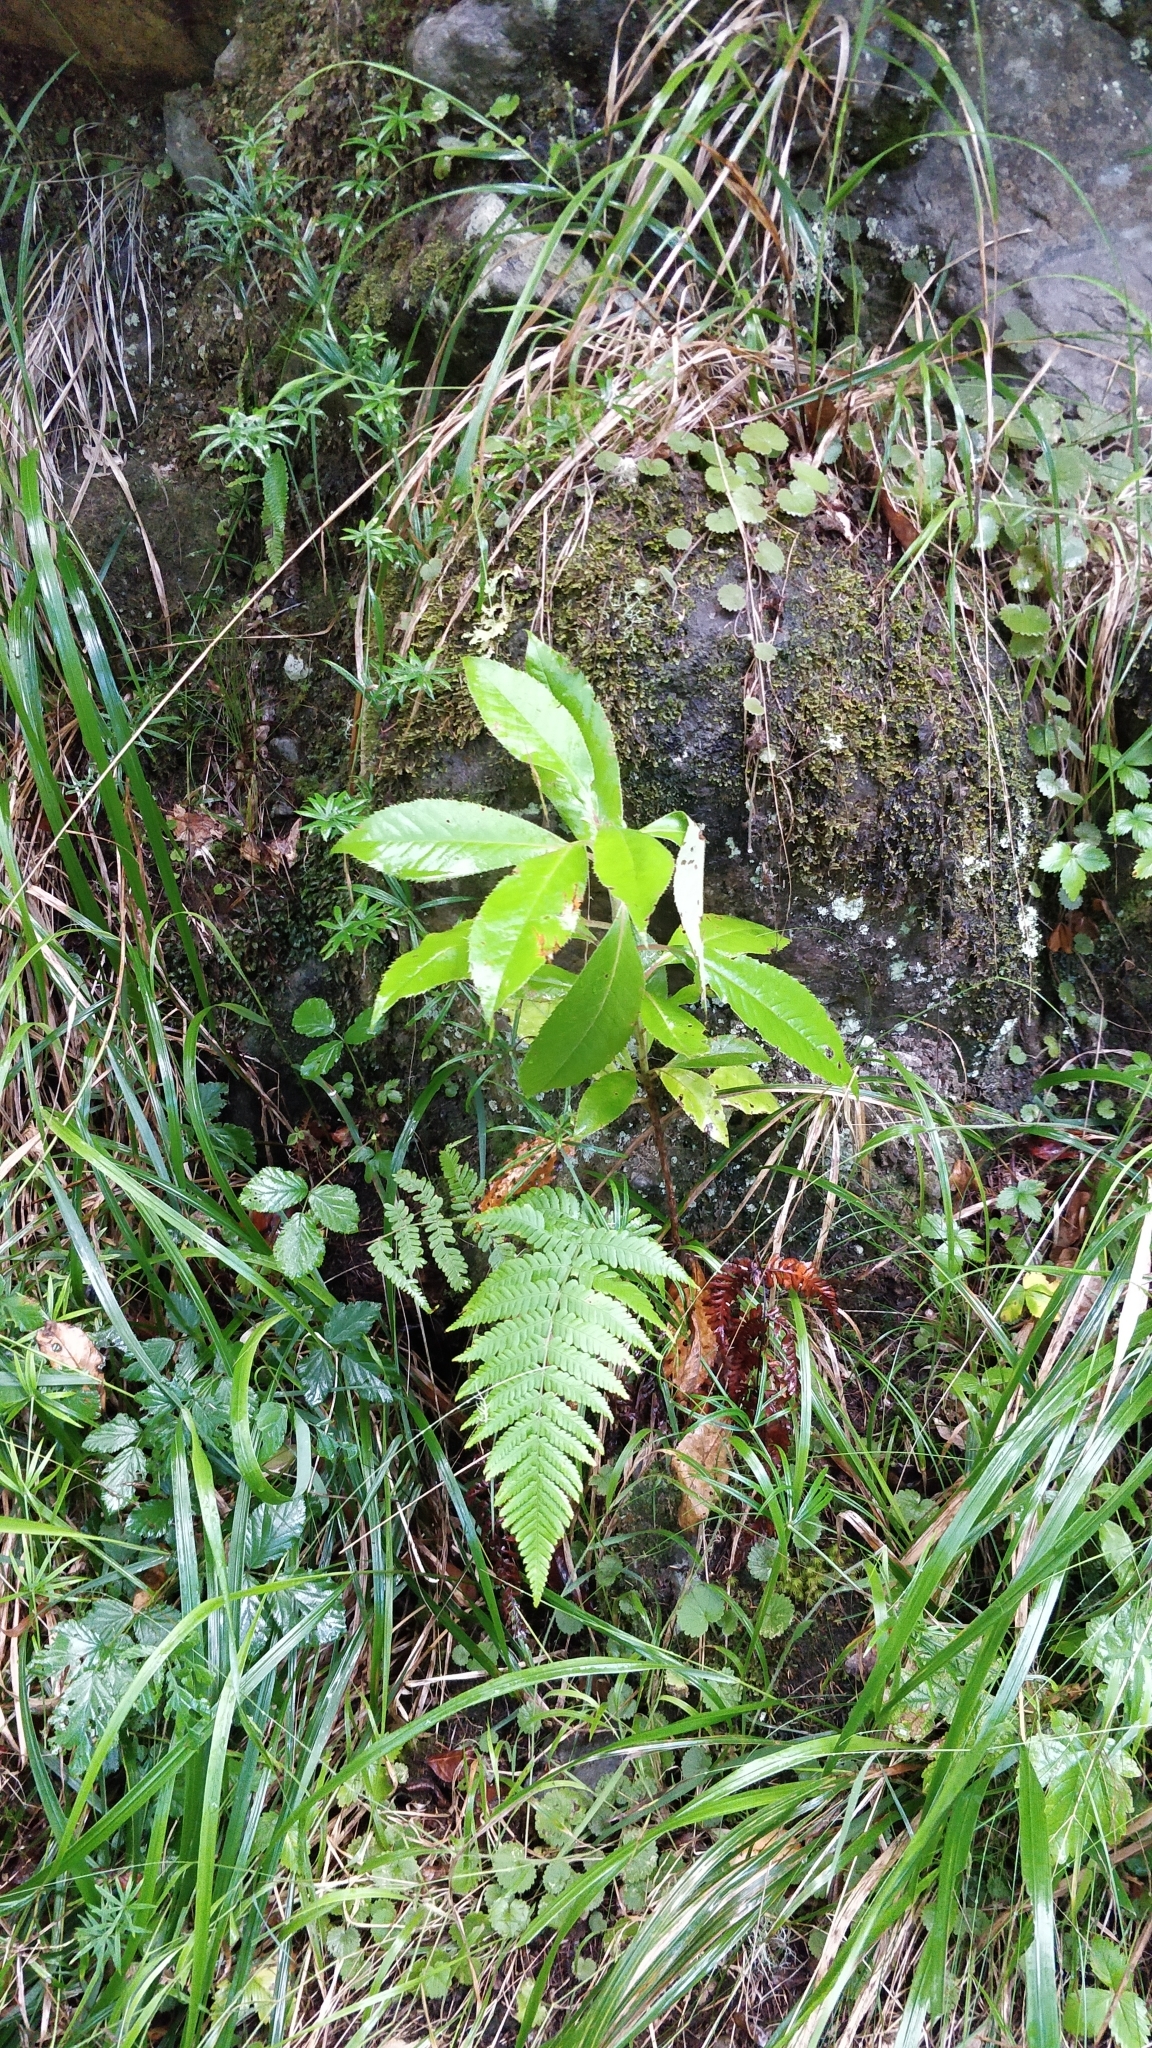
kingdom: Plantae
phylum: Tracheophyta
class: Magnoliopsida
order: Ericales
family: Clethraceae
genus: Clethra
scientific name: Clethra arborea
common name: Lily-of-the-valley-tree
